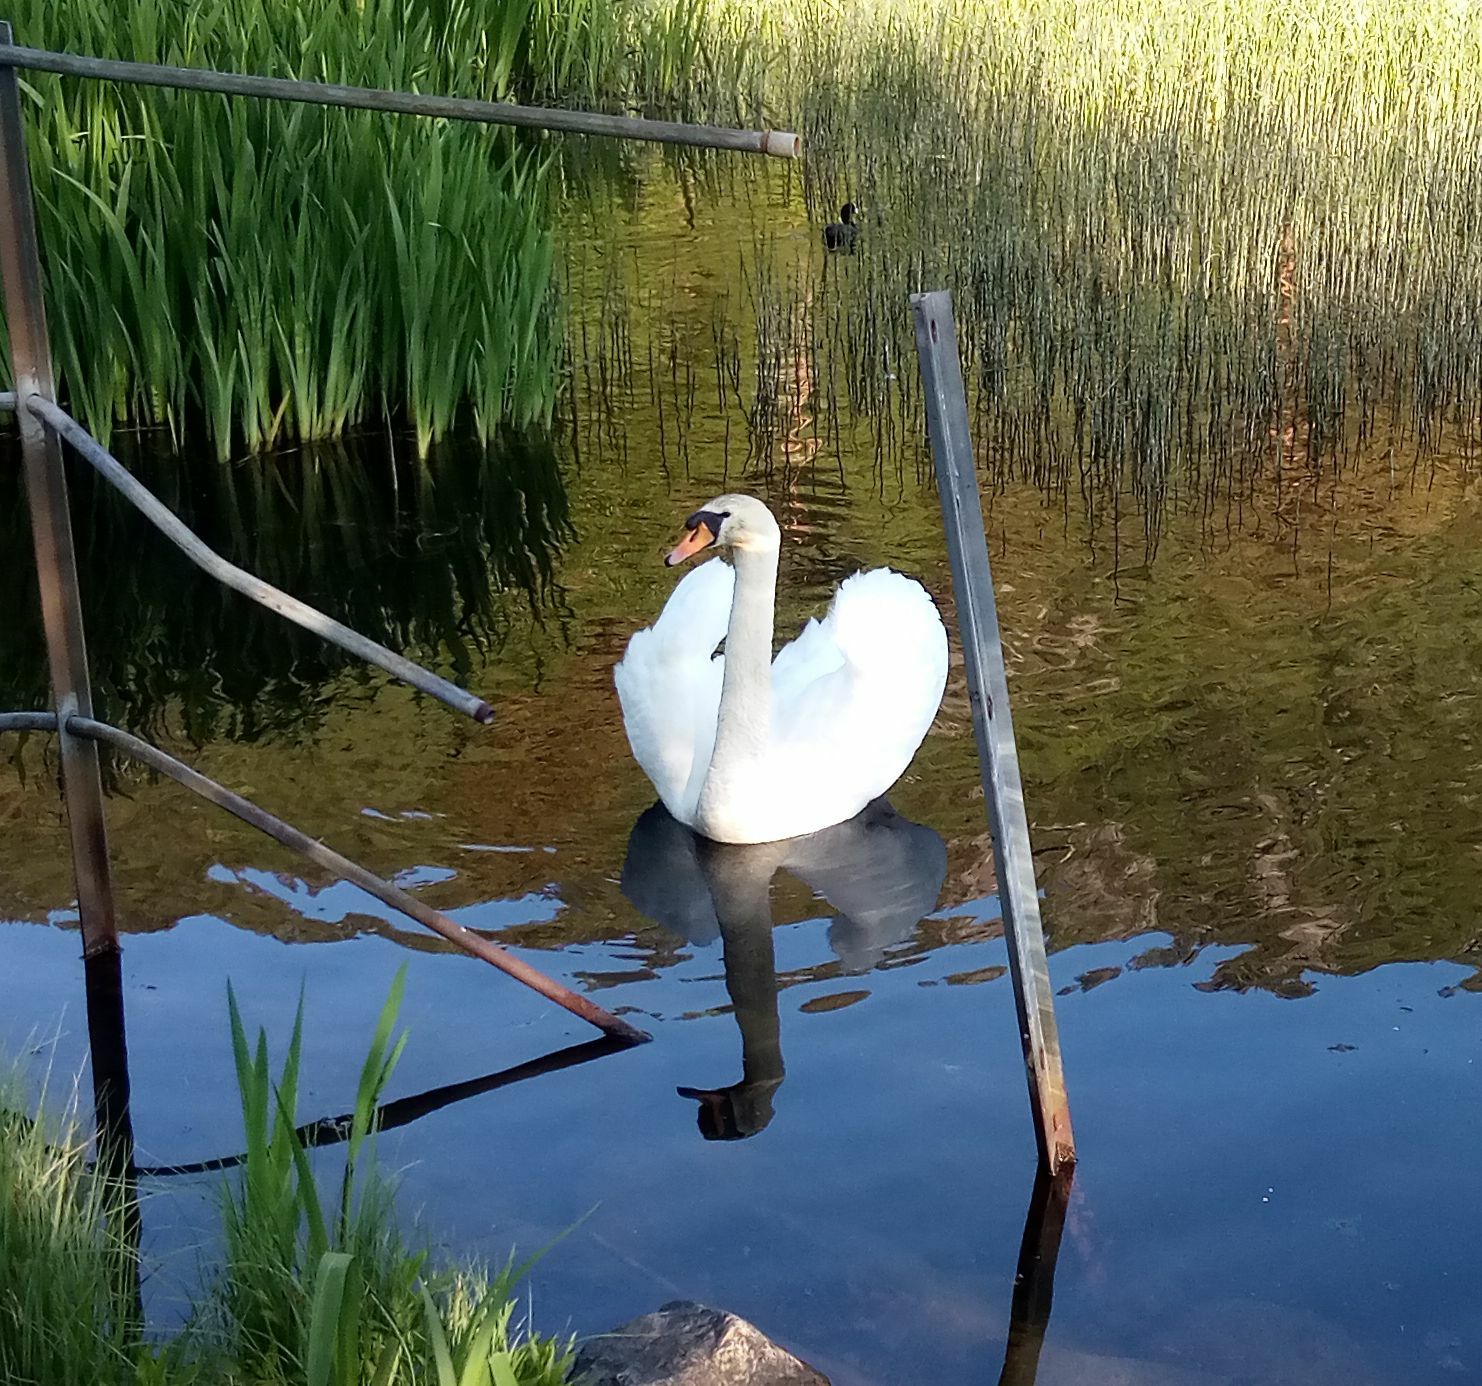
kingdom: Animalia
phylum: Chordata
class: Aves
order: Anseriformes
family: Anatidae
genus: Cygnus
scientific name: Cygnus olor
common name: Mute swan
